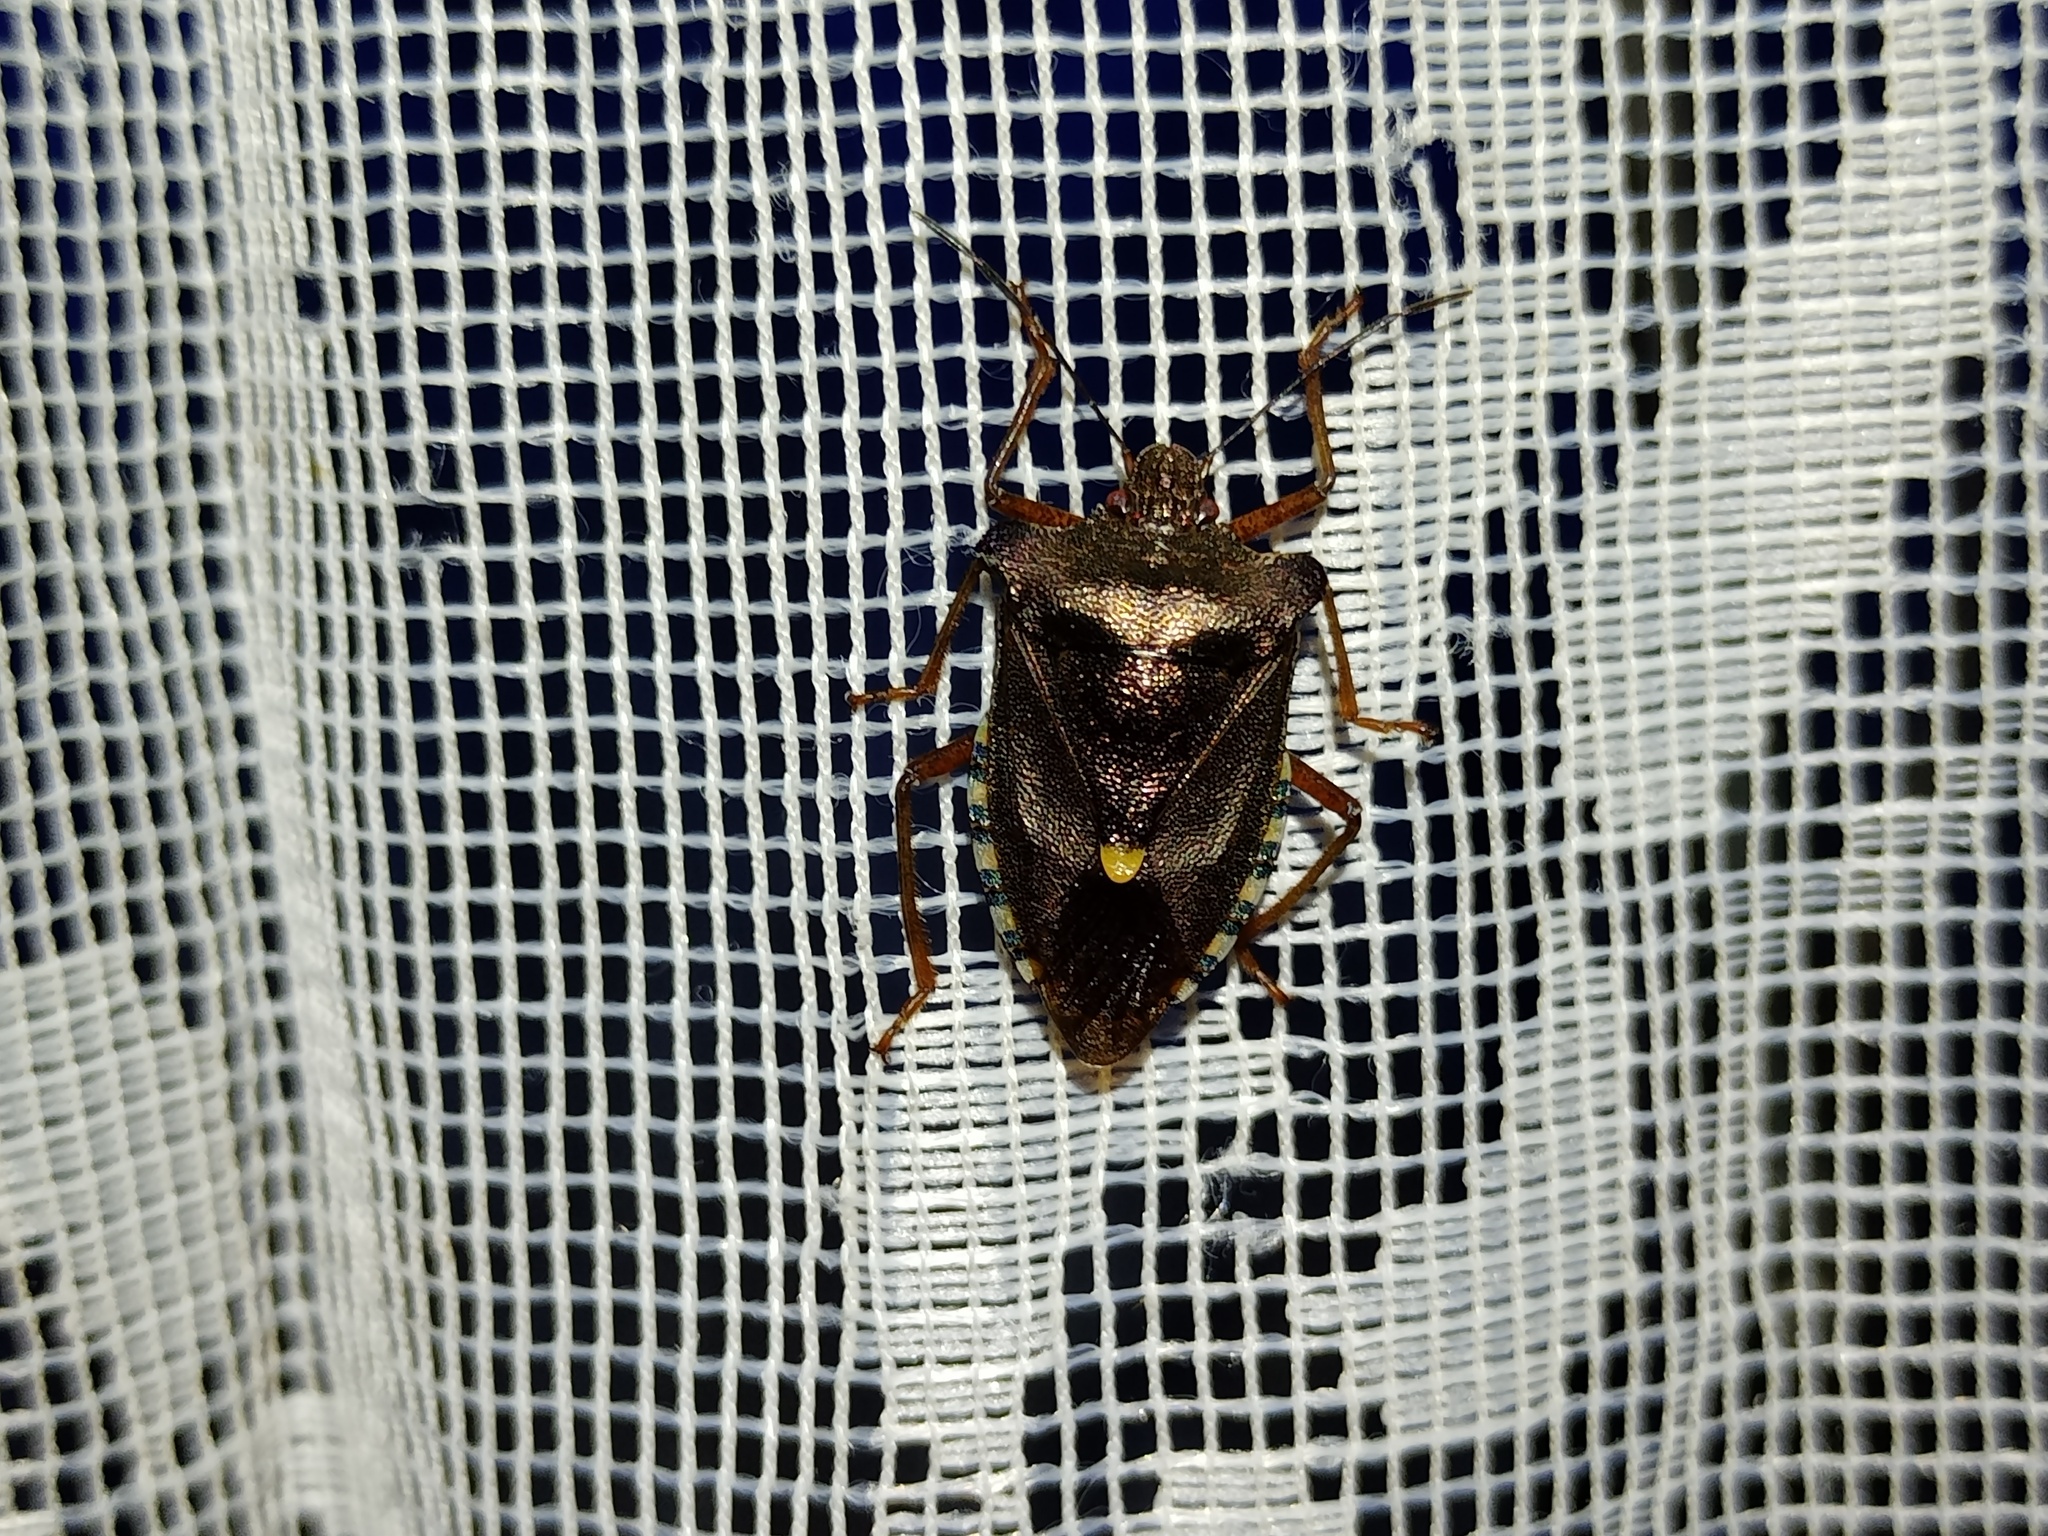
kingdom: Animalia
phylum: Arthropoda
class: Insecta
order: Hemiptera
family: Pentatomidae
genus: Pentatoma
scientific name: Pentatoma rufipes
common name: Forest bug
